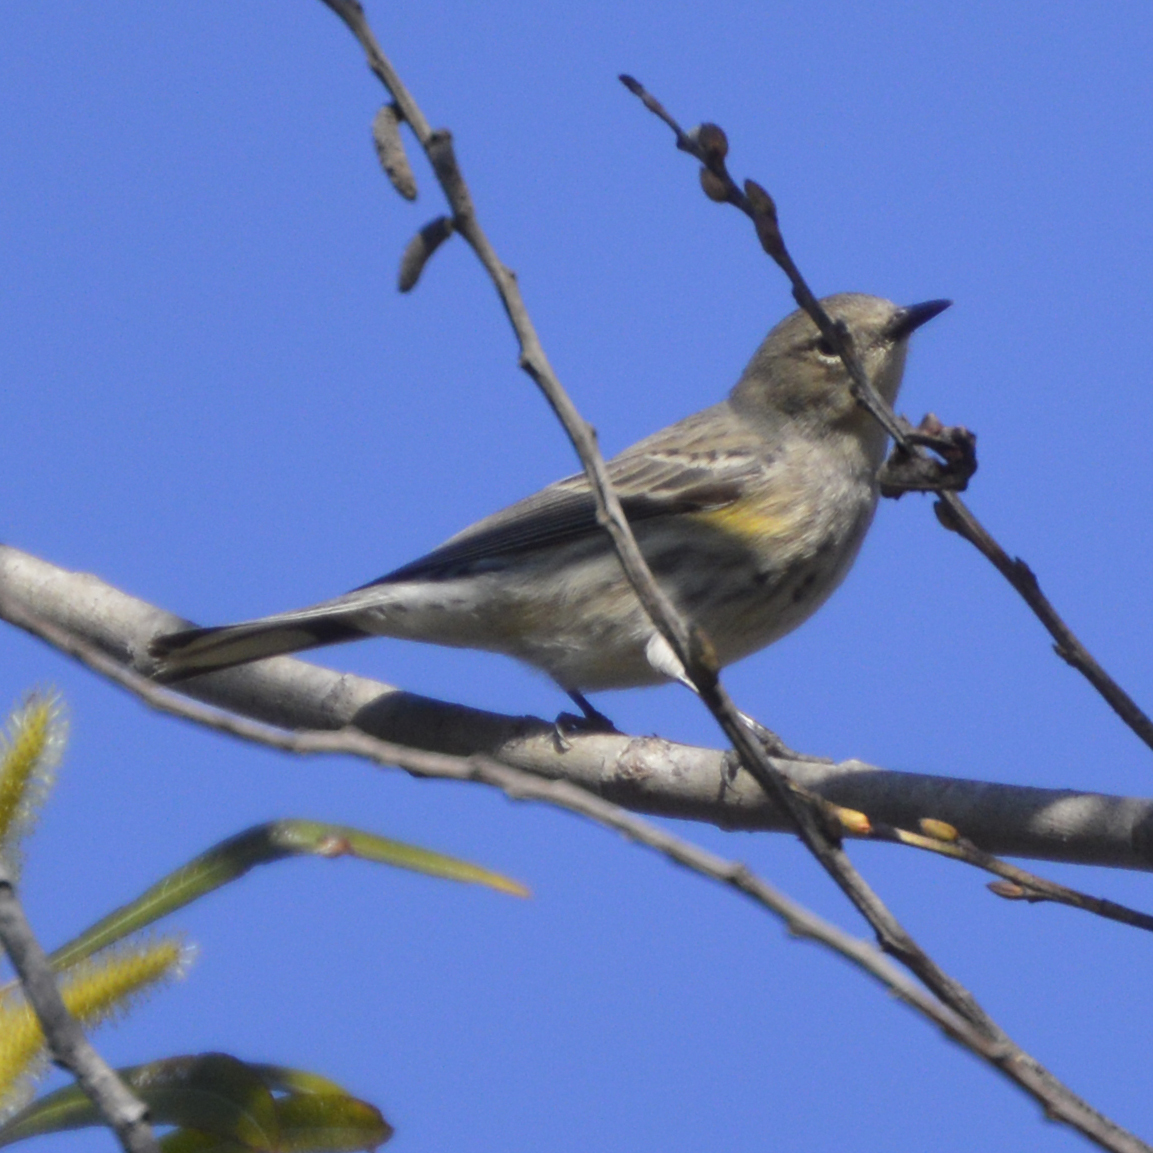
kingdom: Animalia
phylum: Chordata
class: Aves
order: Passeriformes
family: Parulidae
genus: Setophaga
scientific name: Setophaga coronata
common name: Myrtle warbler
